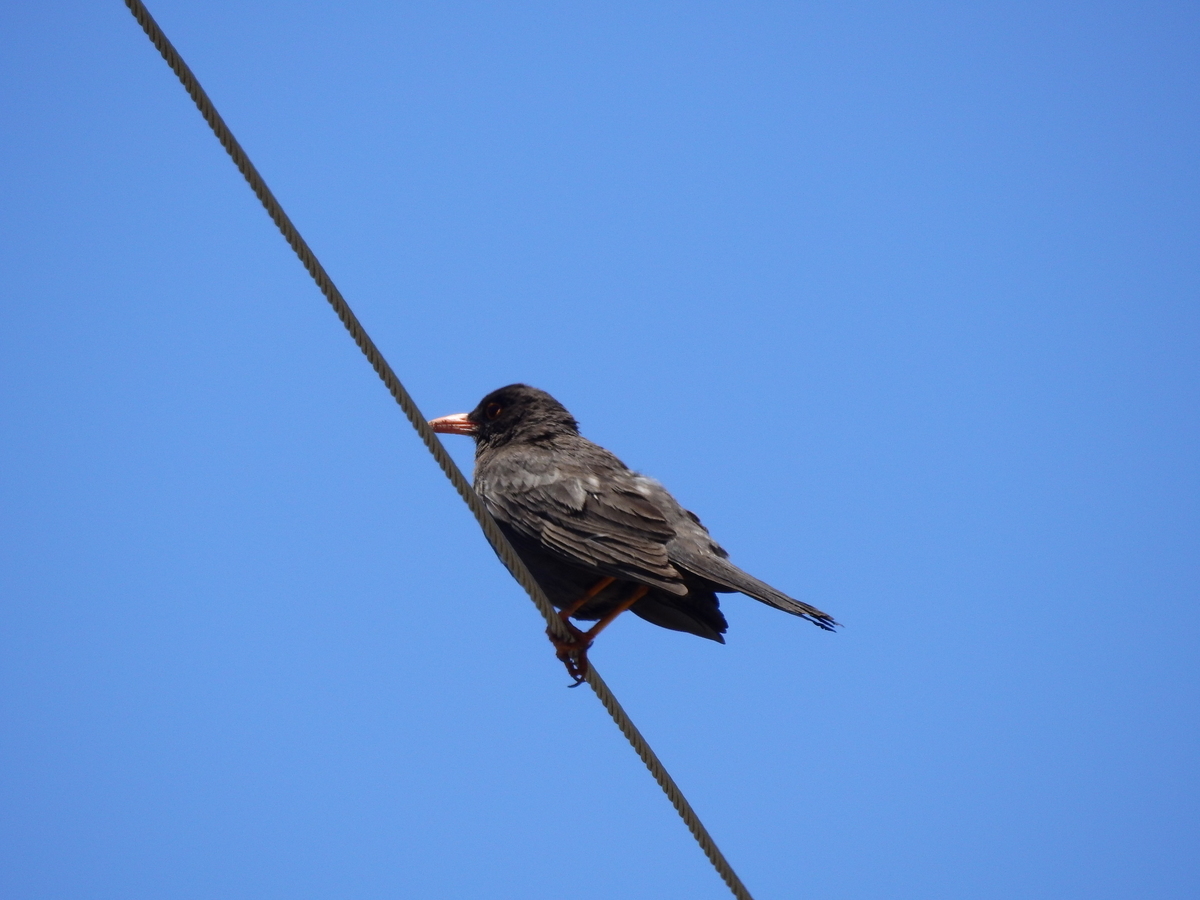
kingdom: Animalia
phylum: Chordata
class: Aves
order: Passeriformes
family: Turdidae
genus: Turdus
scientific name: Turdus chiguanco
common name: Chiguanco thrush
